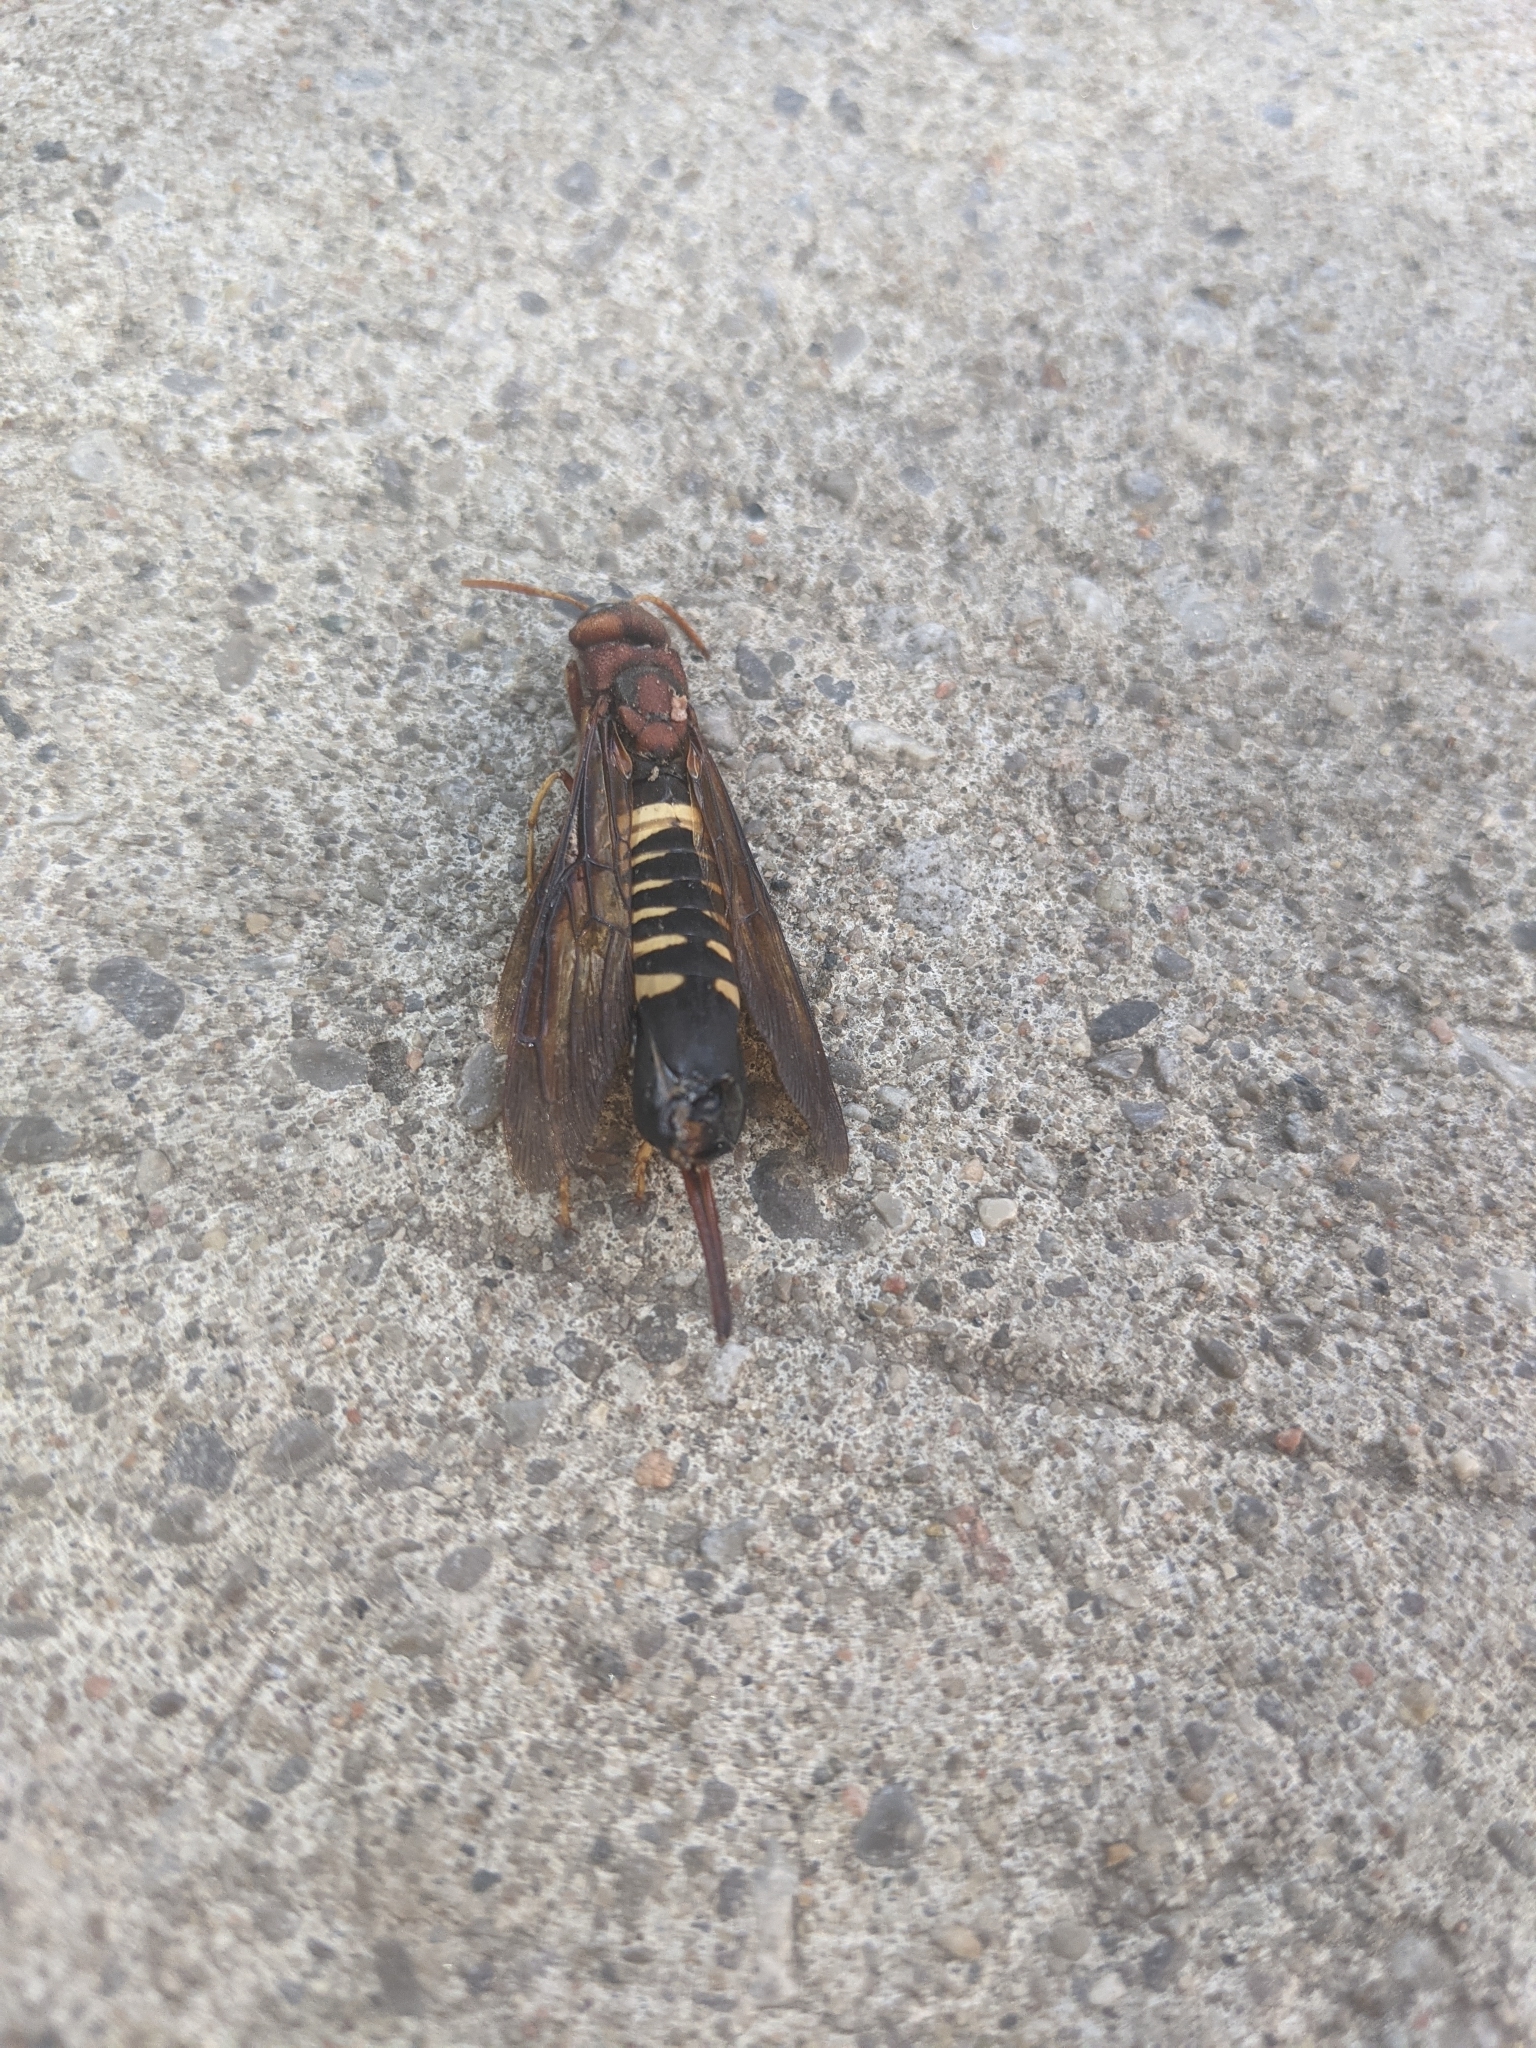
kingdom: Animalia
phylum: Arthropoda
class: Insecta
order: Hymenoptera
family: Siricidae
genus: Tremex
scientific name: Tremex columba
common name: Wasp
